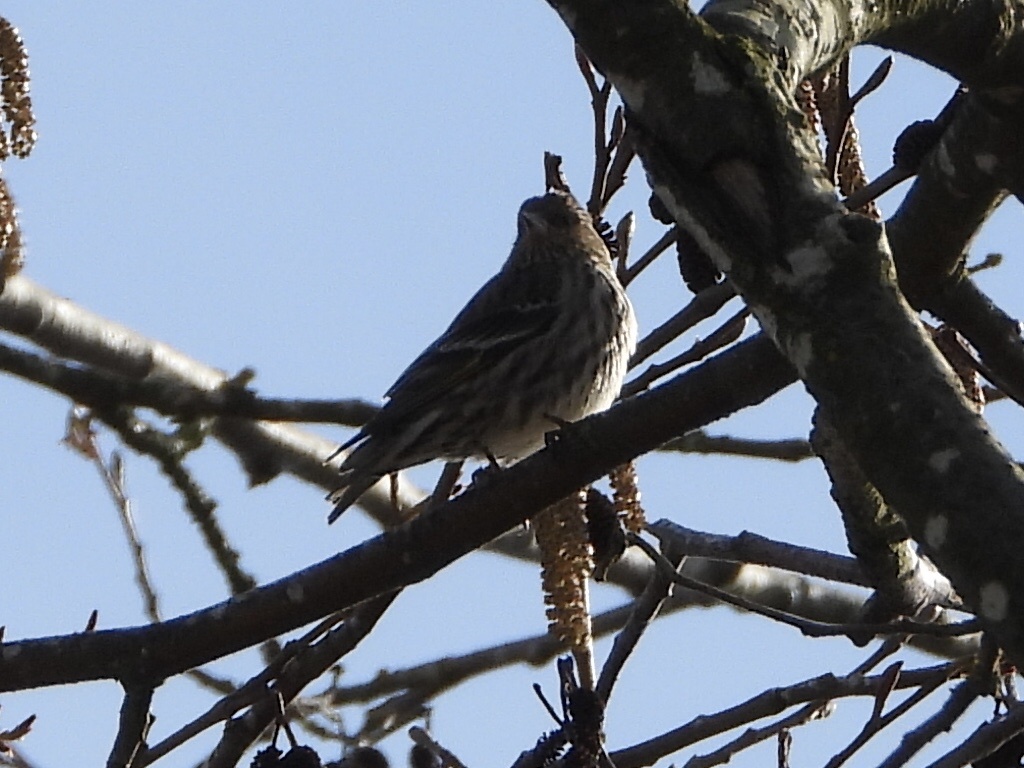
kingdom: Animalia
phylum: Chordata
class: Aves
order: Passeriformes
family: Fringillidae
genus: Spinus
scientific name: Spinus pinus
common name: Pine siskin
